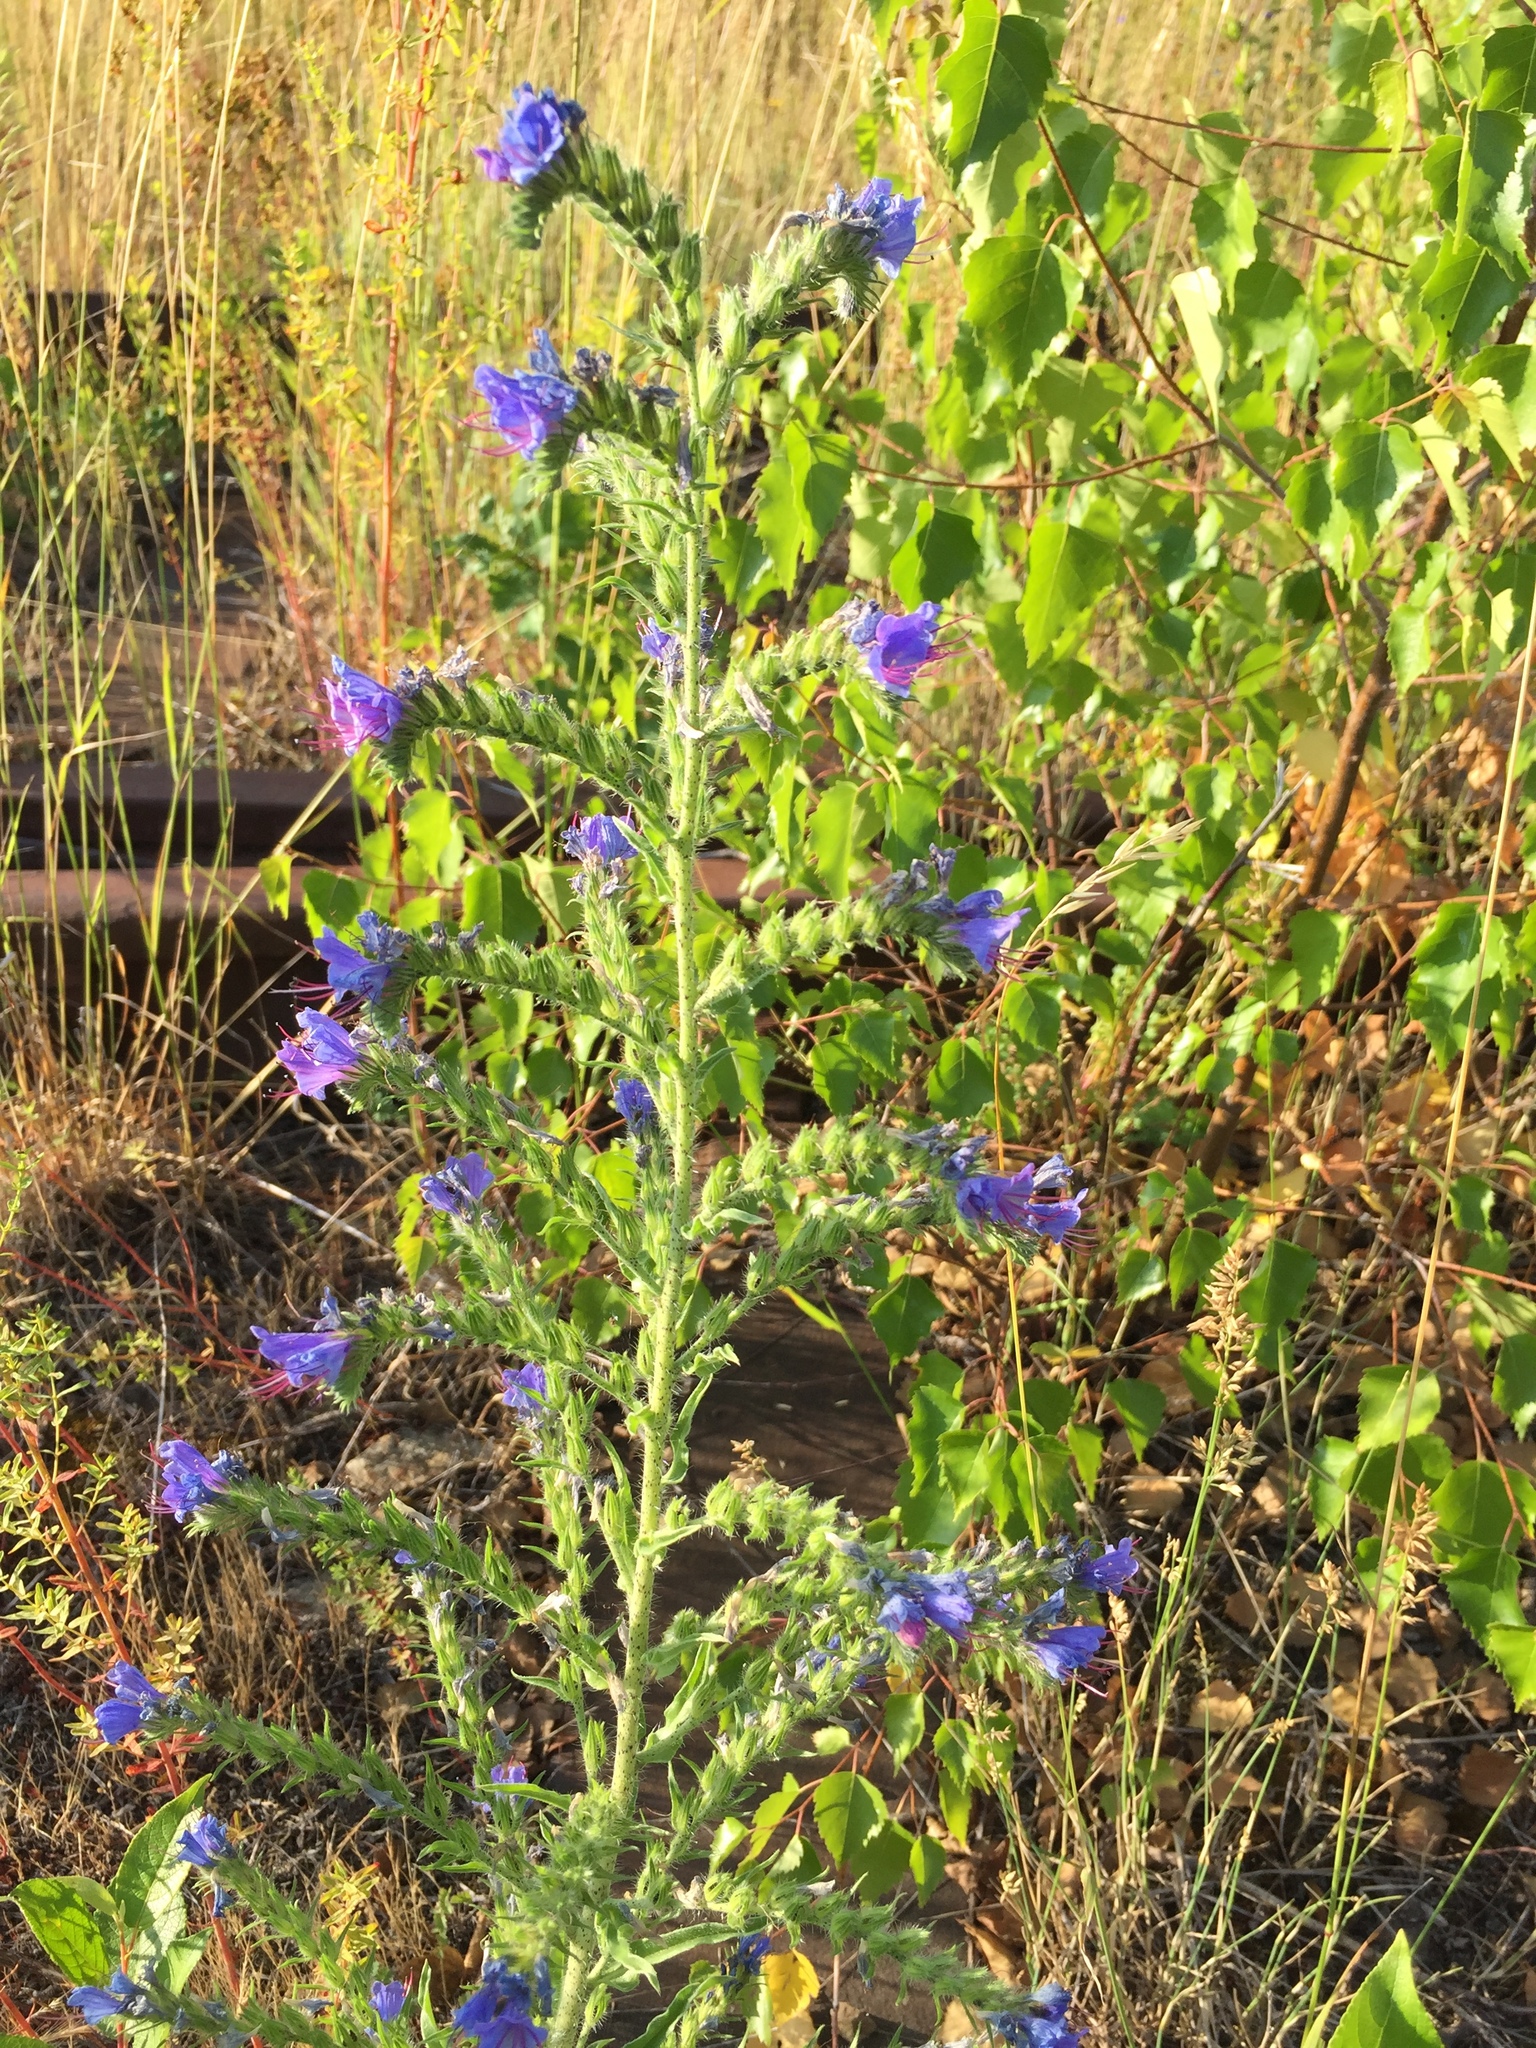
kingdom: Plantae
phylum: Tracheophyta
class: Magnoliopsida
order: Boraginales
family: Boraginaceae
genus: Echium
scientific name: Echium vulgare
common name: Common viper's bugloss
